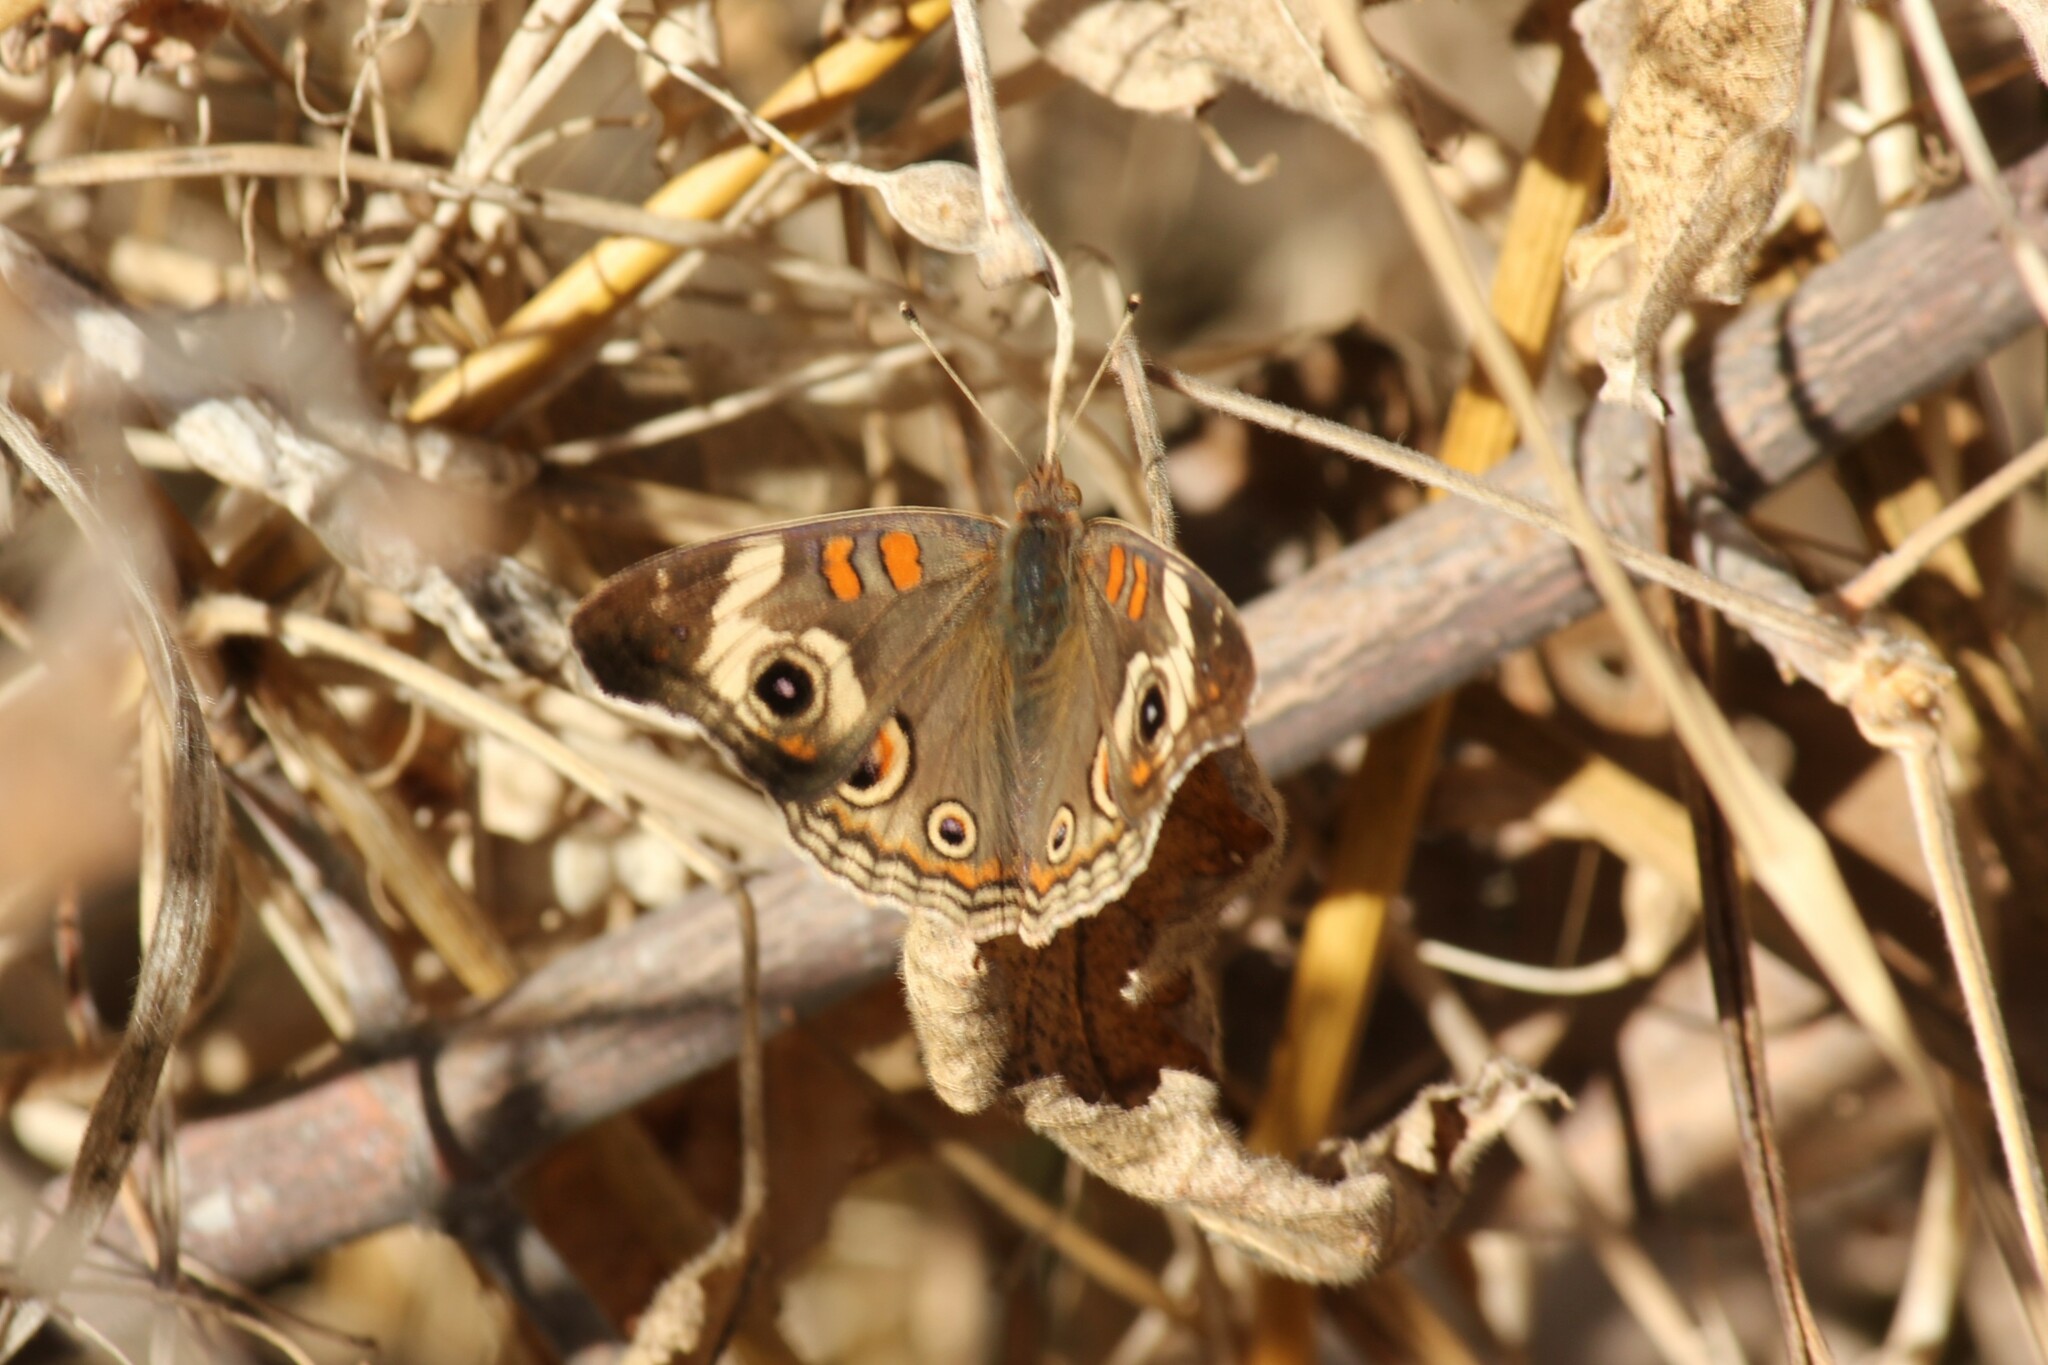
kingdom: Animalia
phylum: Arthropoda
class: Insecta
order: Lepidoptera
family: Nymphalidae
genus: Junonia
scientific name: Junonia grisea
